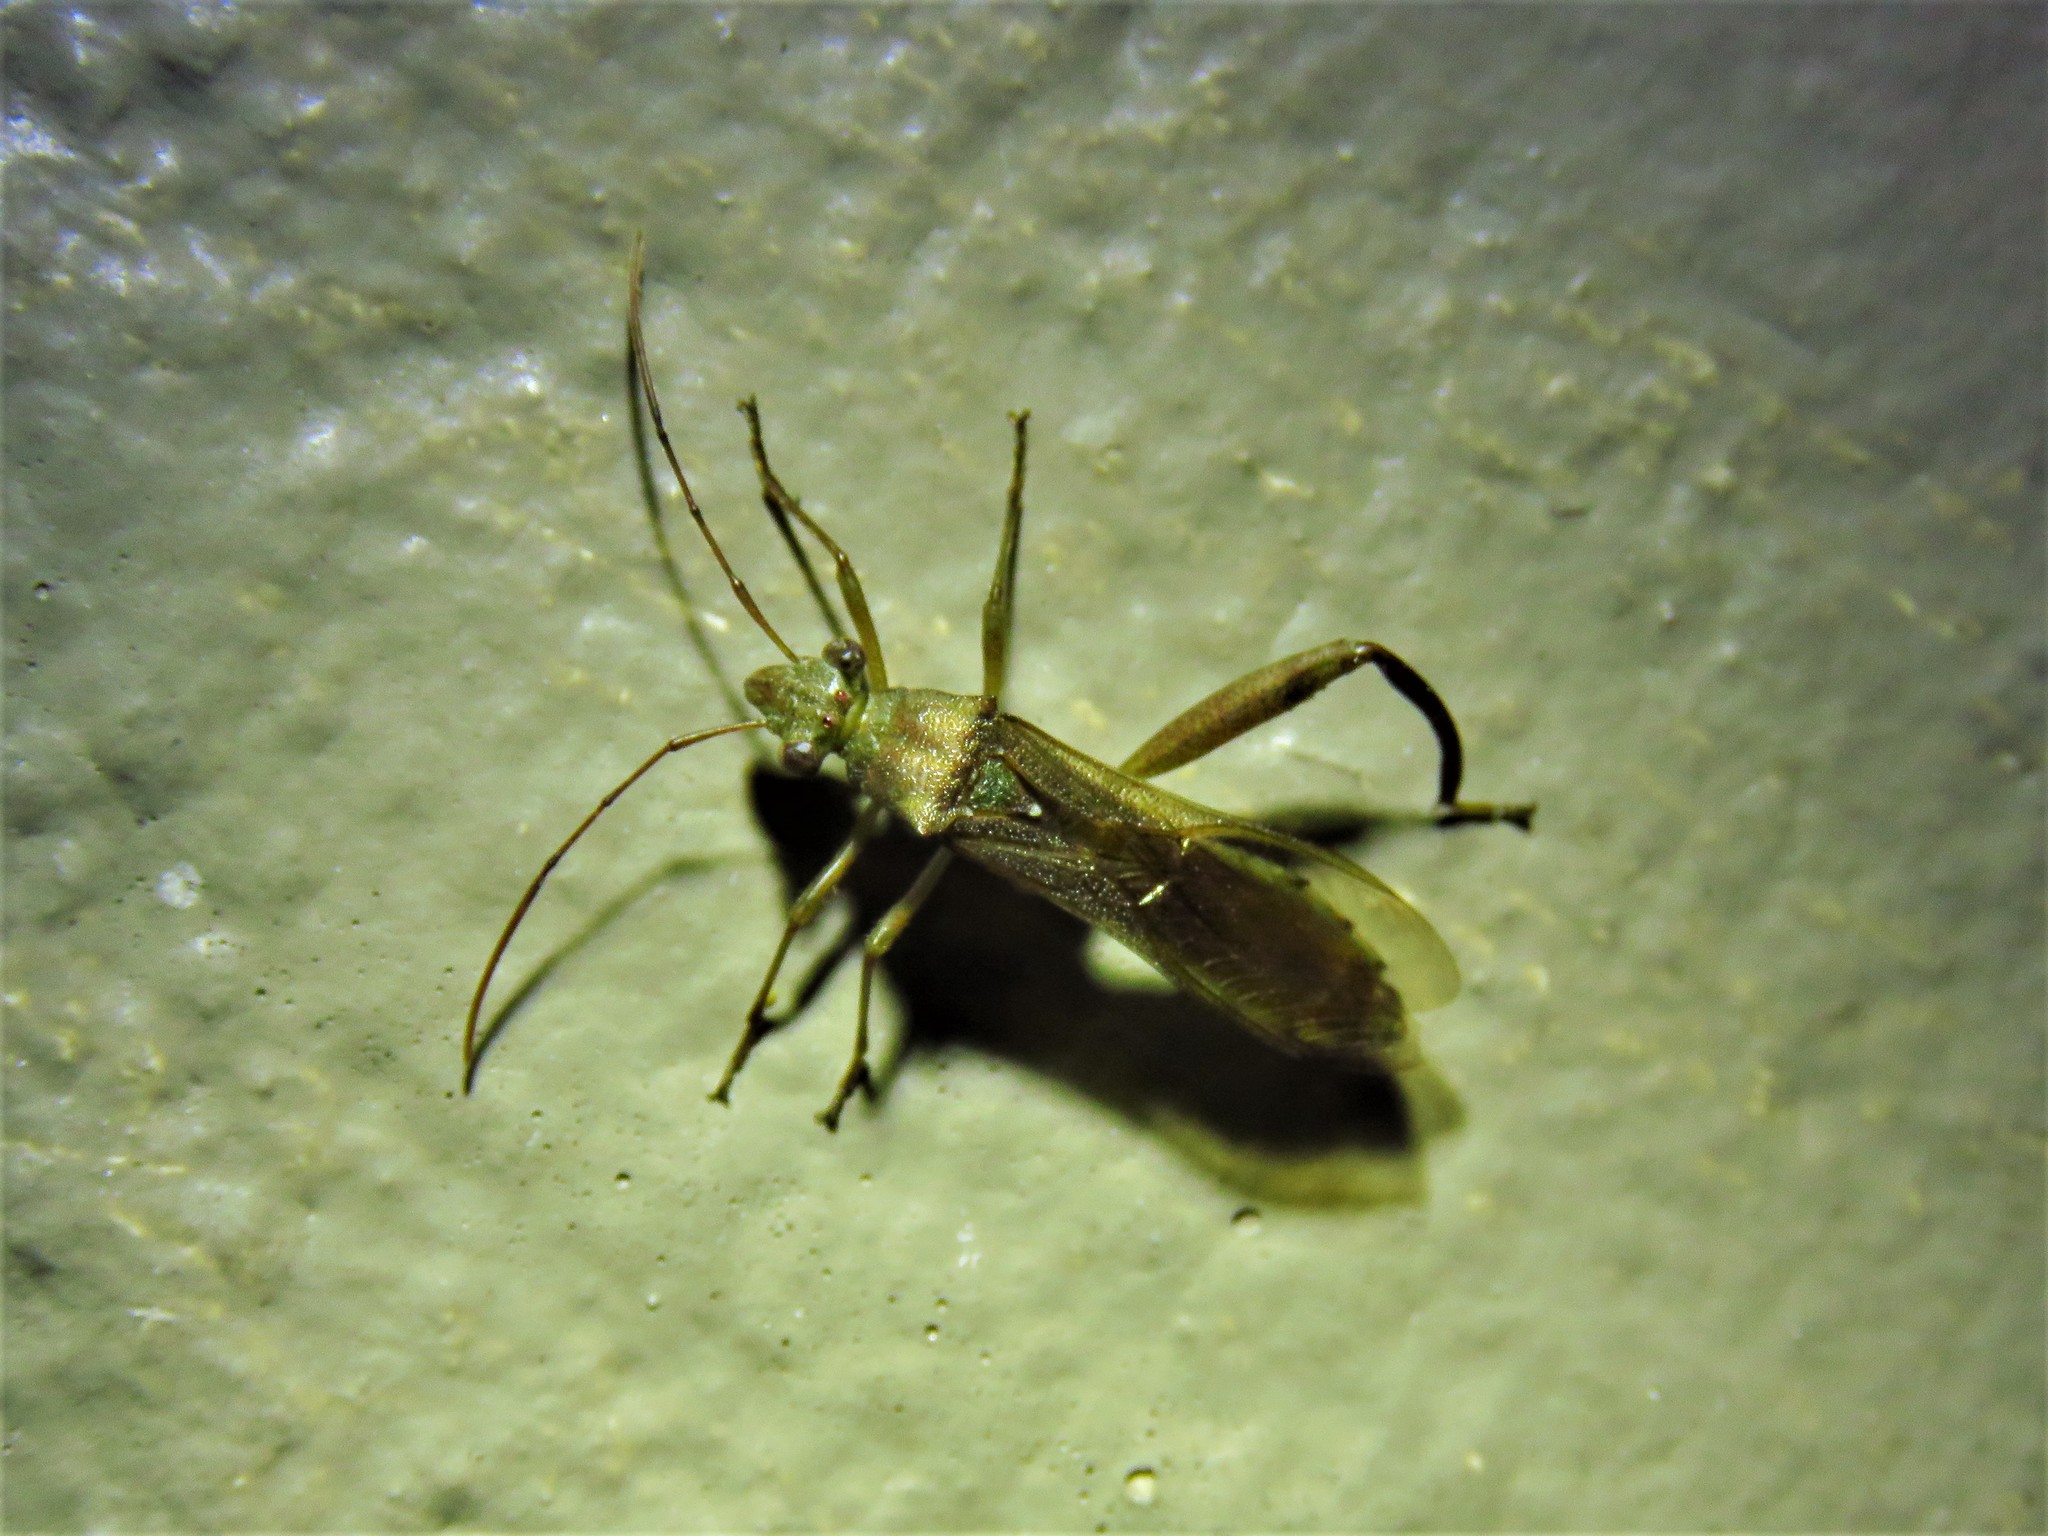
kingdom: Animalia
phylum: Arthropoda
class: Insecta
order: Hemiptera
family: Alydidae
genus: Hyalymenus
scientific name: Hyalymenus tarsatus
